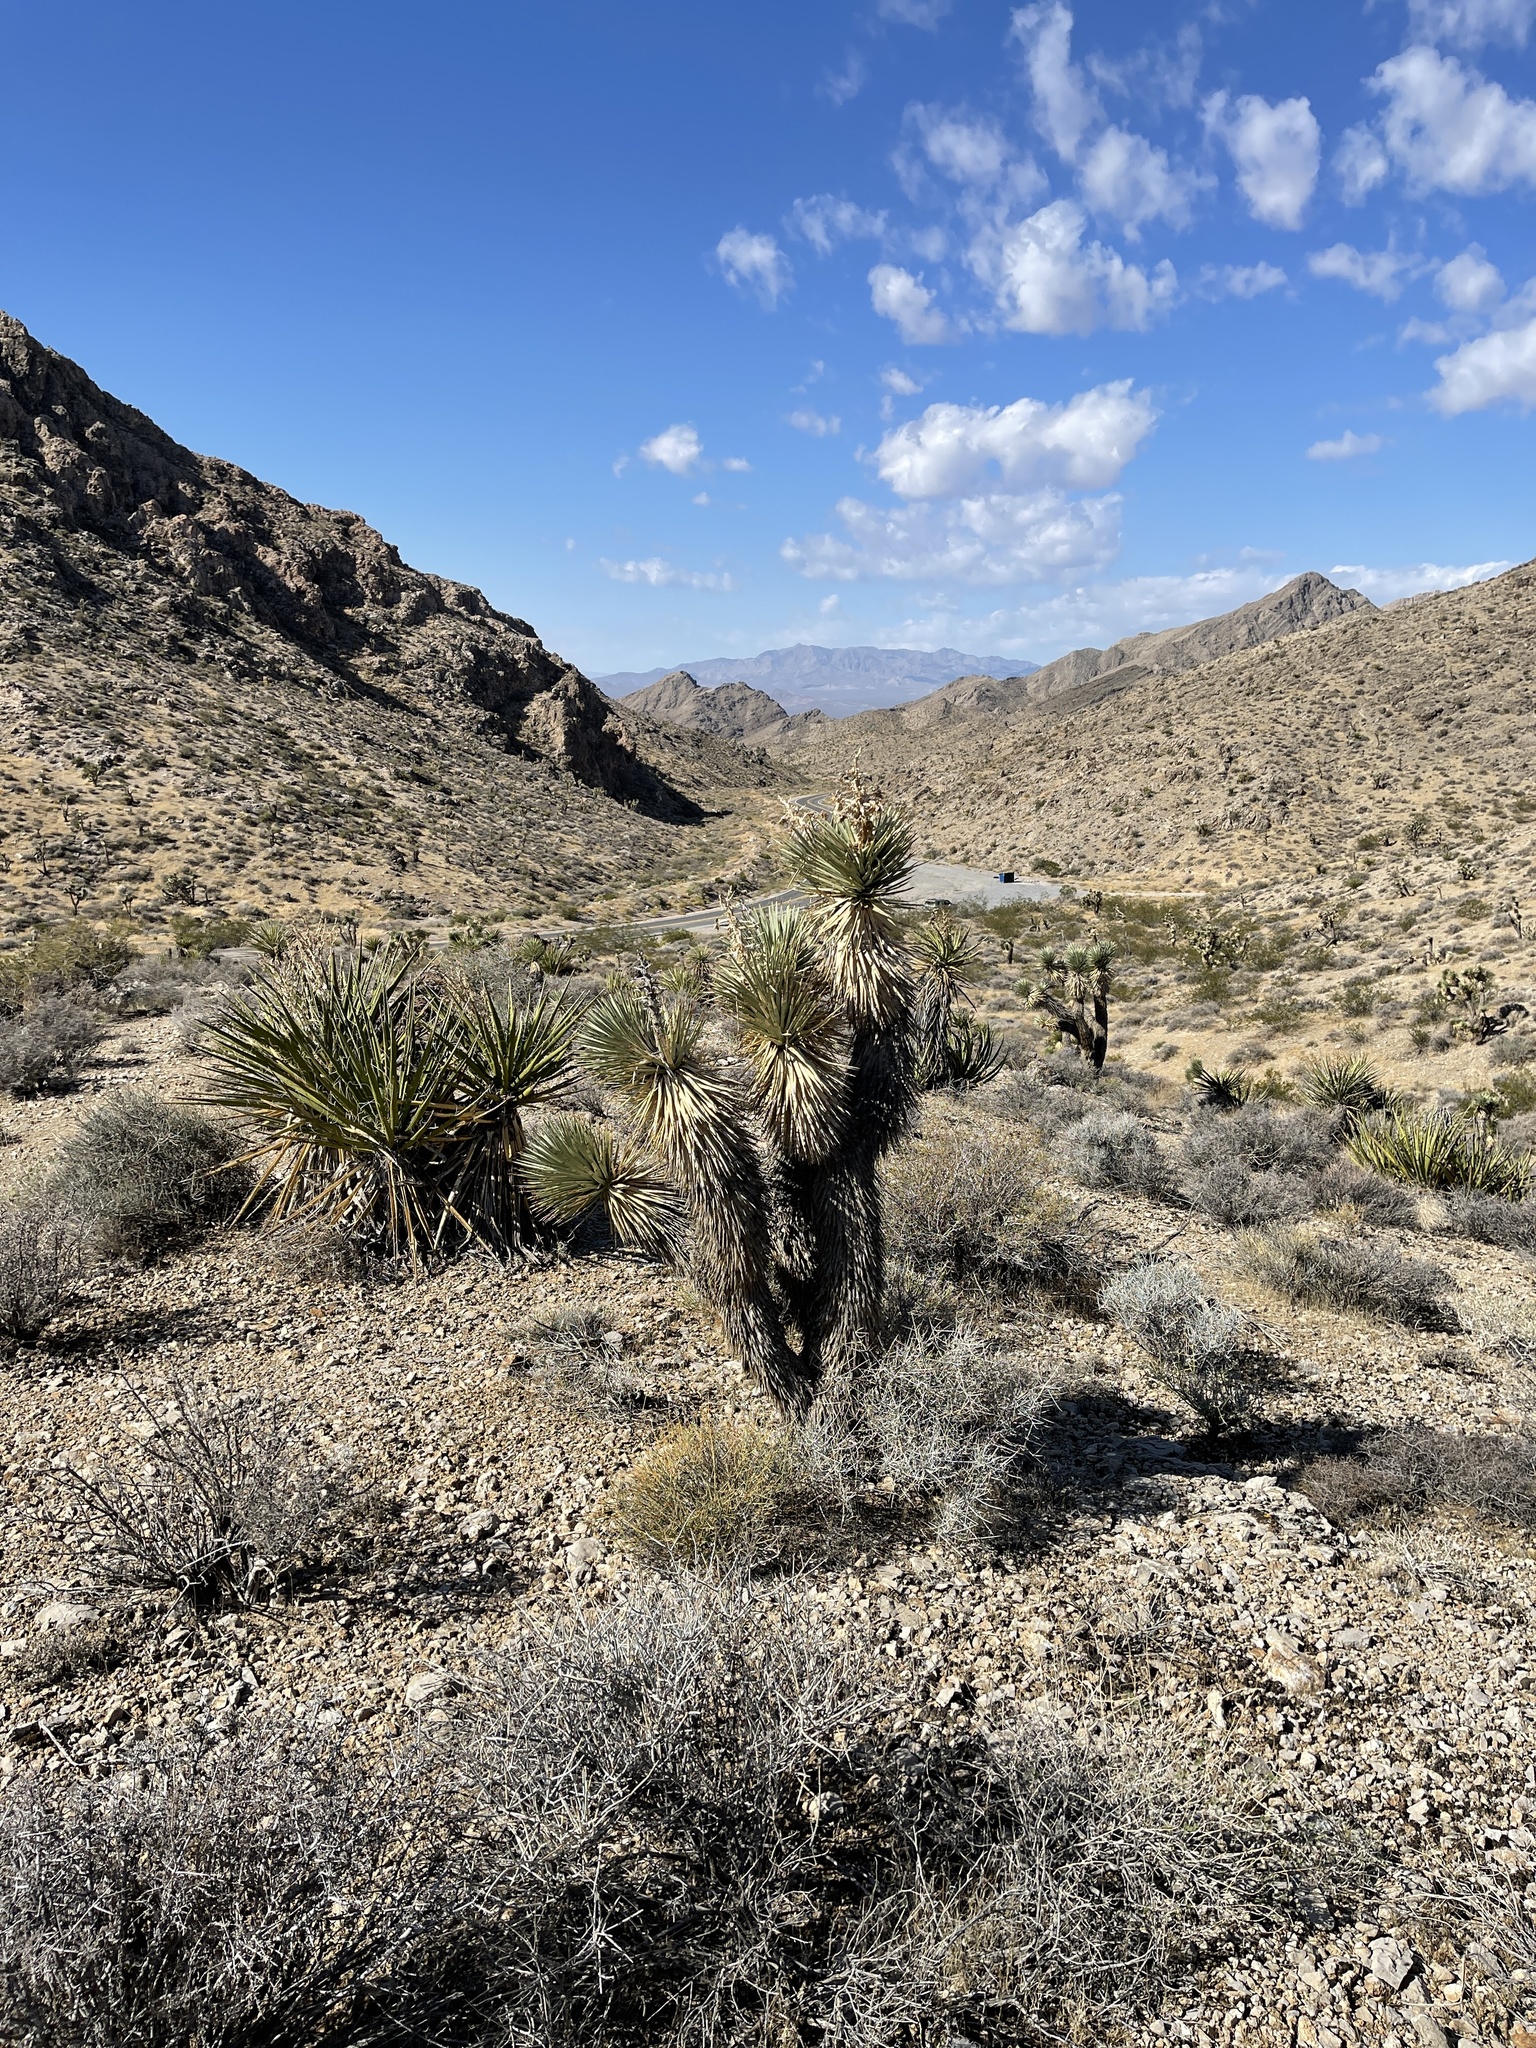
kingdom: Plantae
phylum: Tracheophyta
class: Liliopsida
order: Asparagales
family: Asparagaceae
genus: Yucca
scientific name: Yucca brevifolia
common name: Joshua tree
